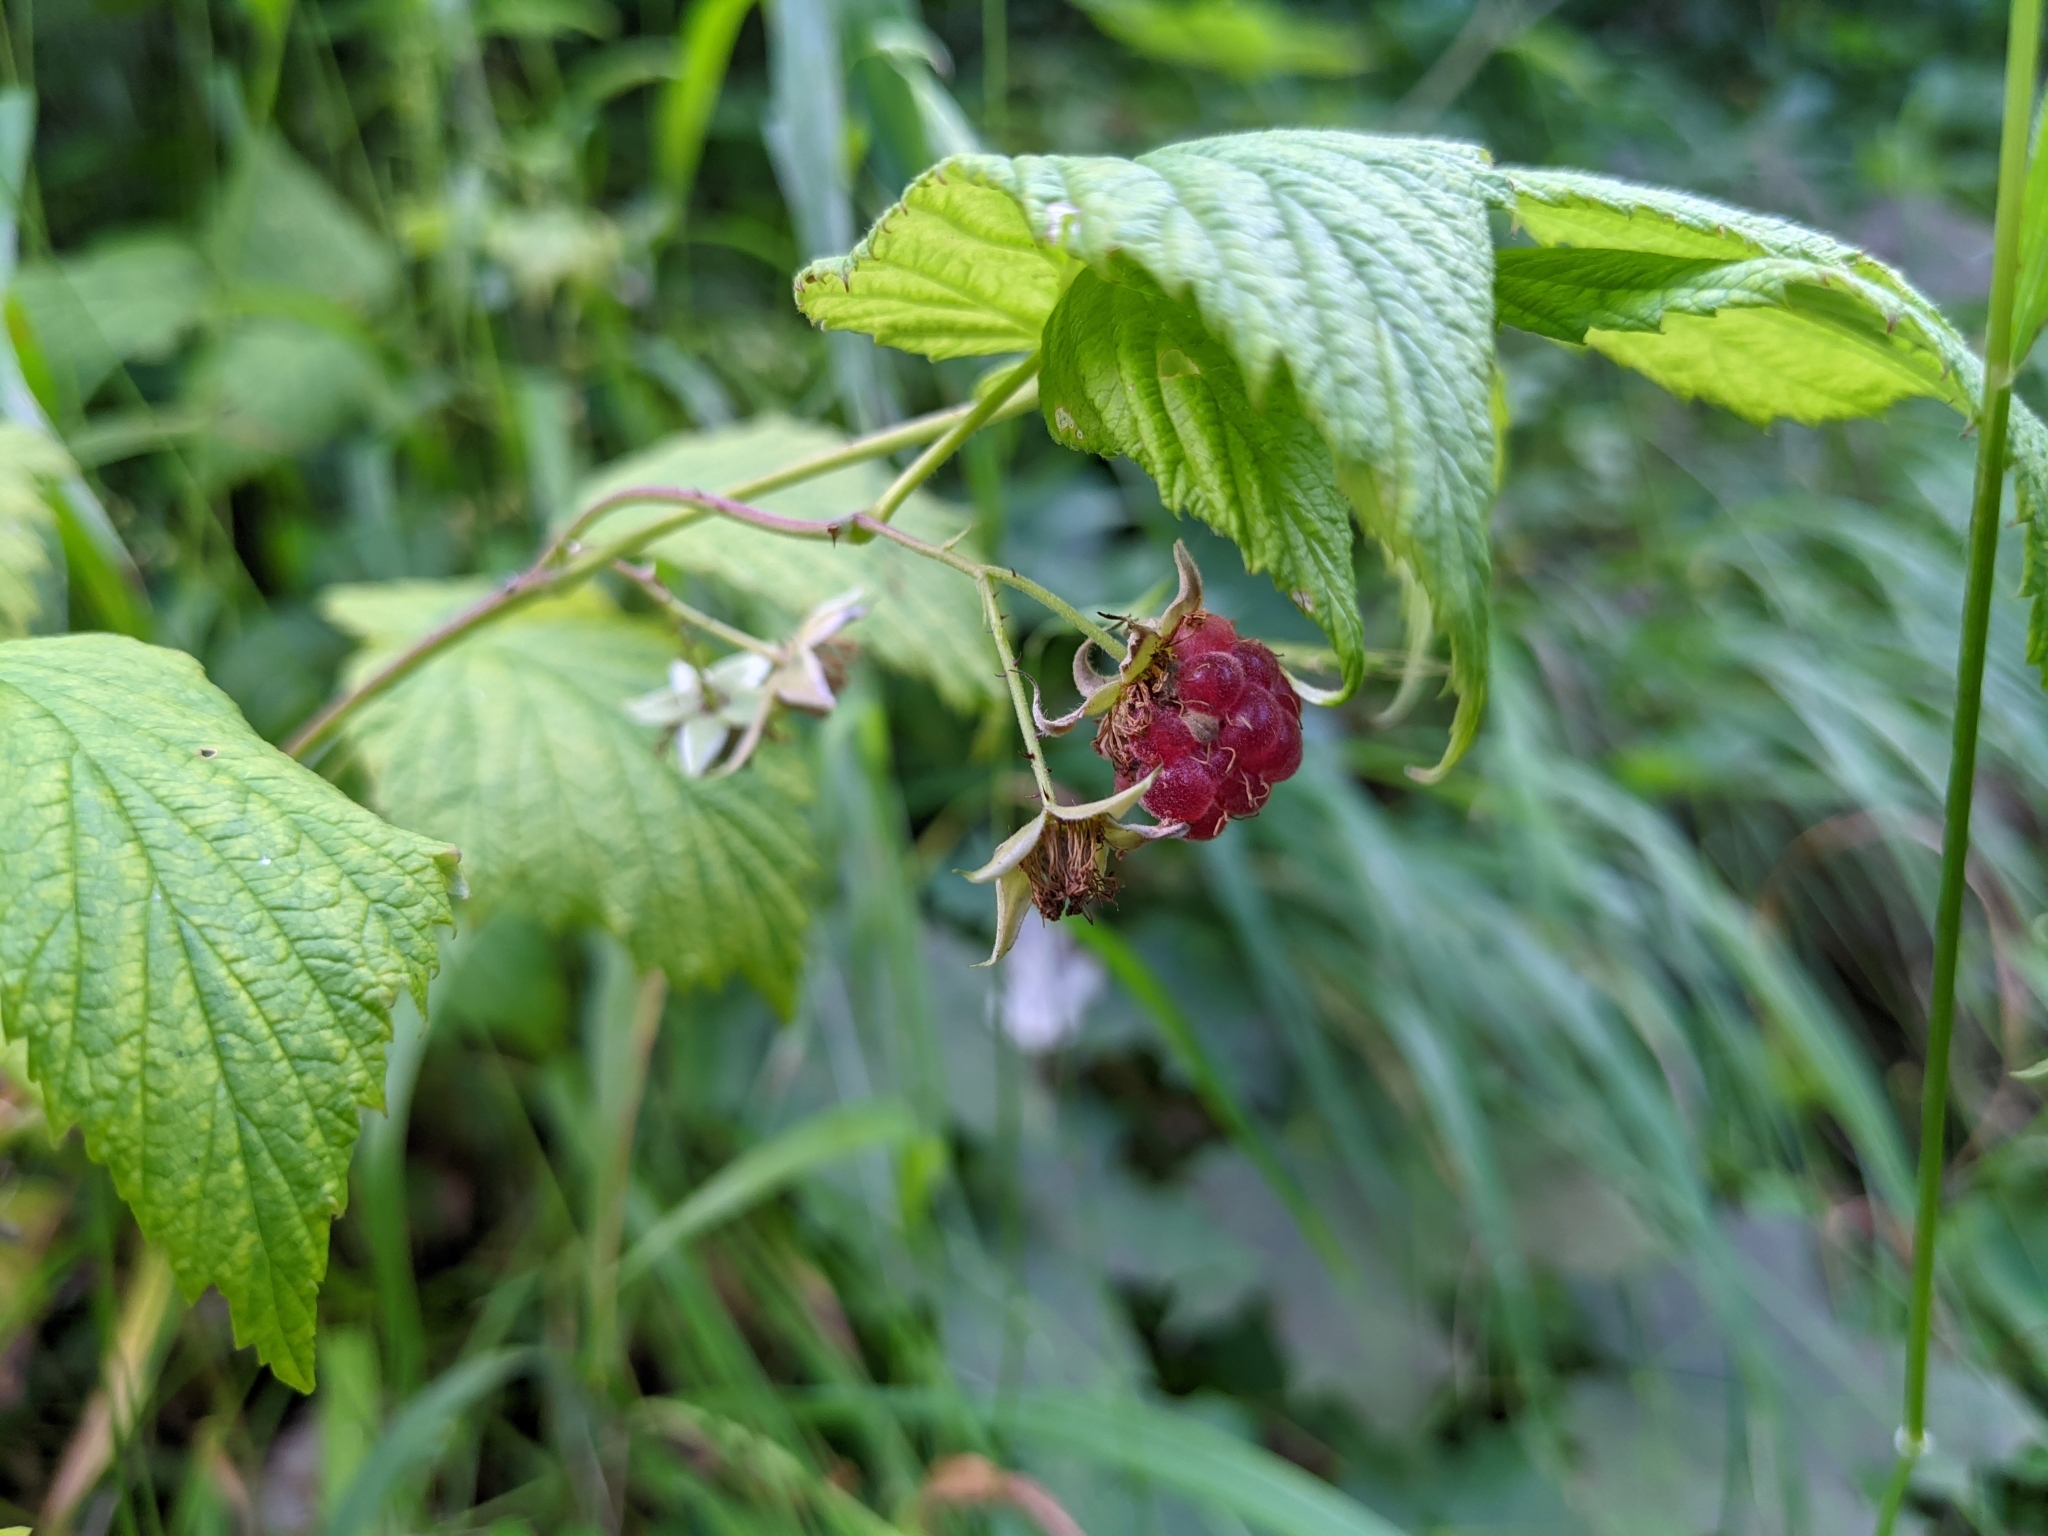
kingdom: Plantae
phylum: Tracheophyta
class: Magnoliopsida
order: Rosales
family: Rosaceae
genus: Rubus
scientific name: Rubus idaeus
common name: Raspberry
